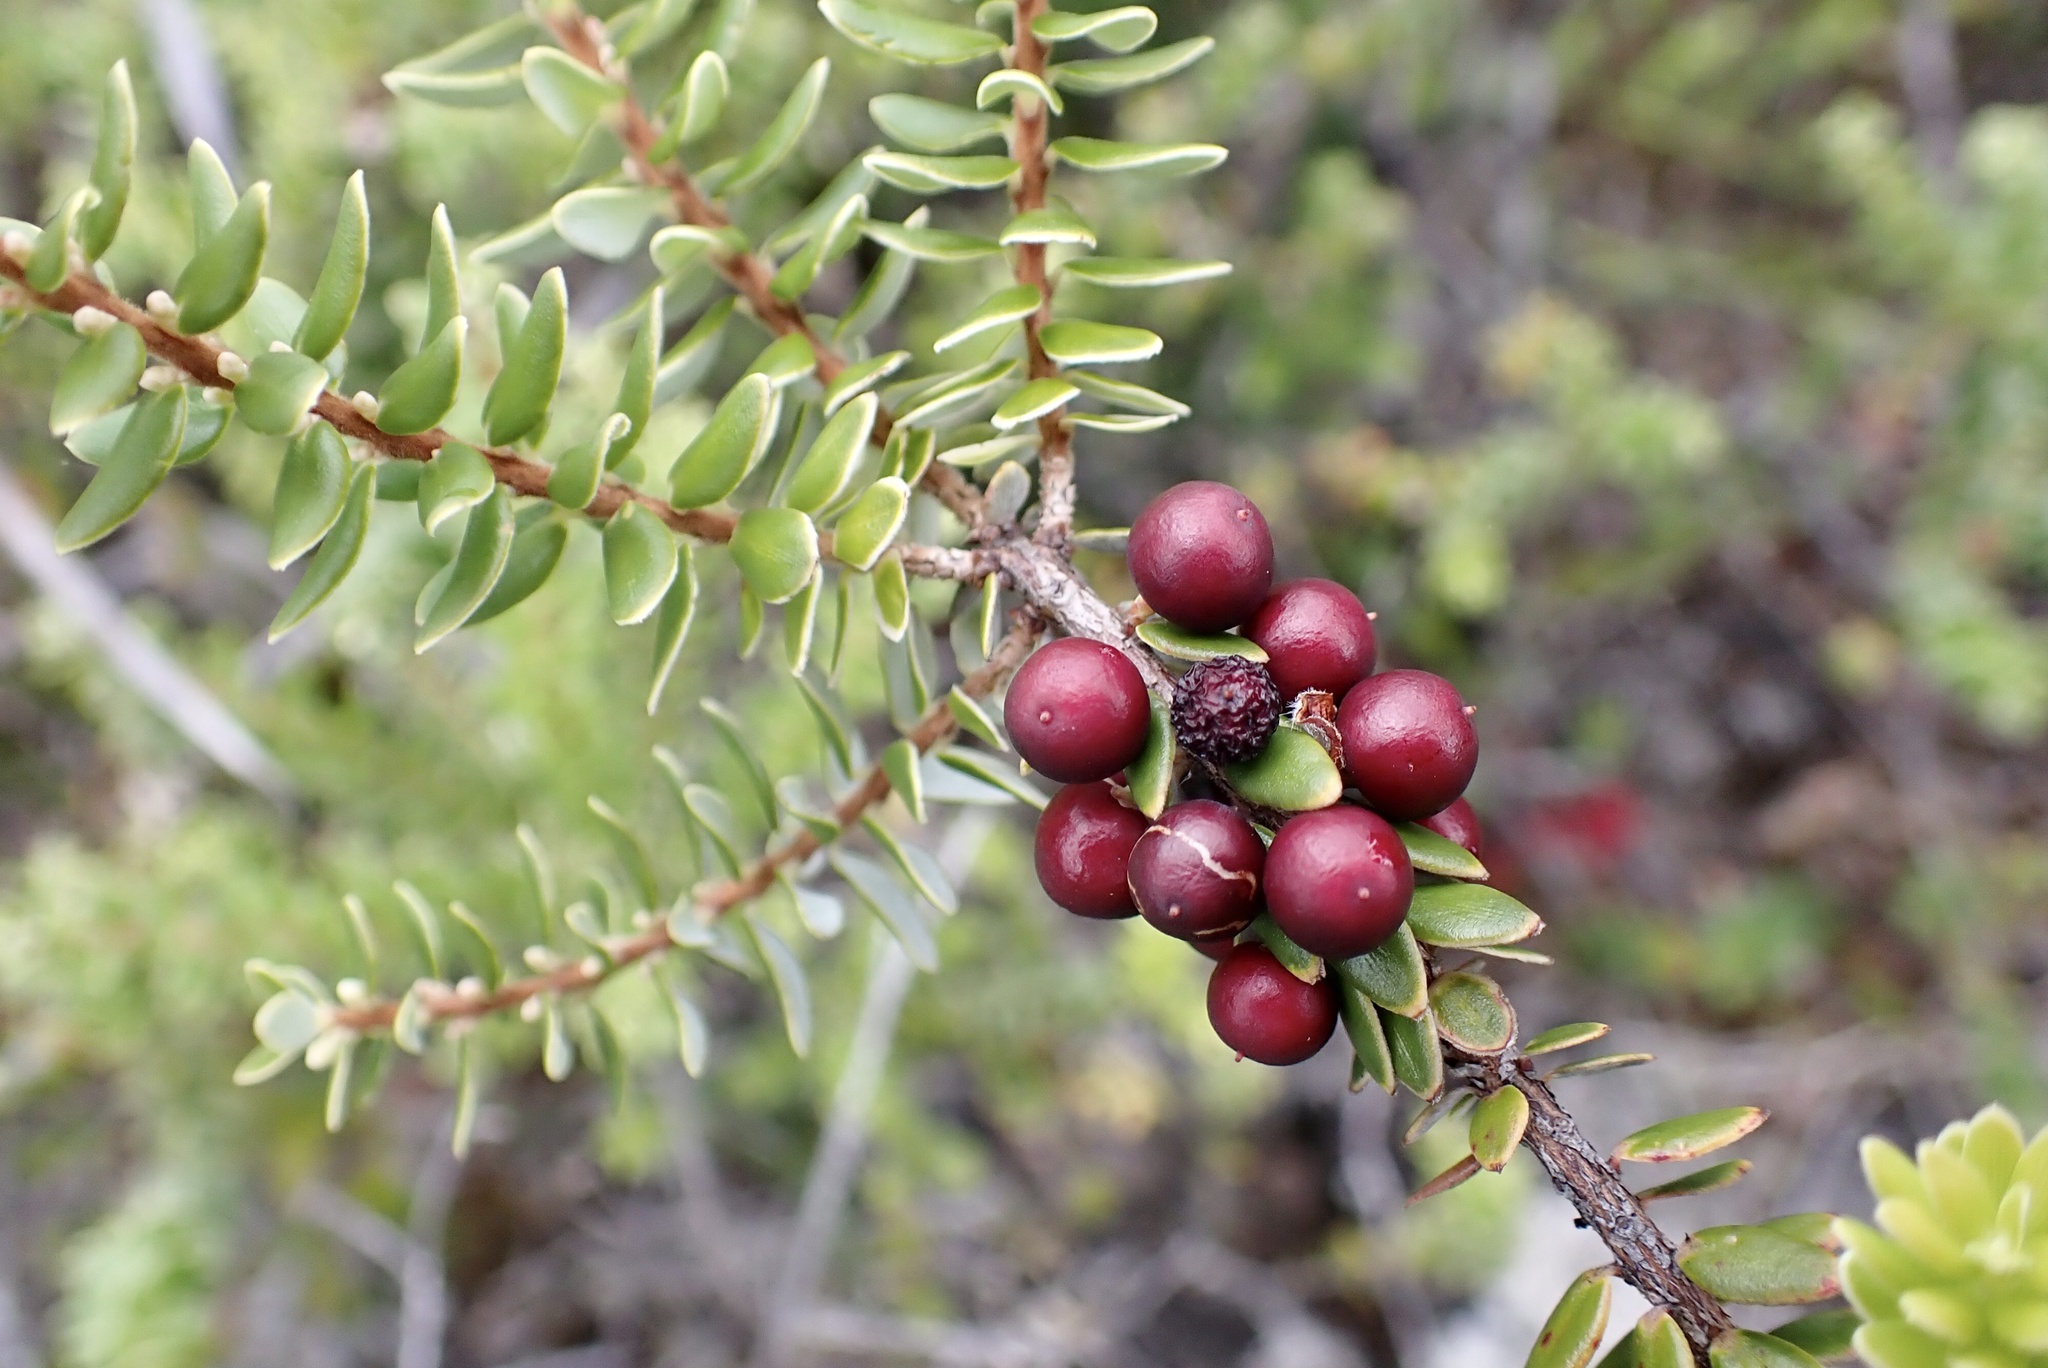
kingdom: Plantae
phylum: Tracheophyta
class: Magnoliopsida
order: Ericales
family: Ericaceae
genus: Leptecophylla
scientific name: Leptecophylla tameiameiae
